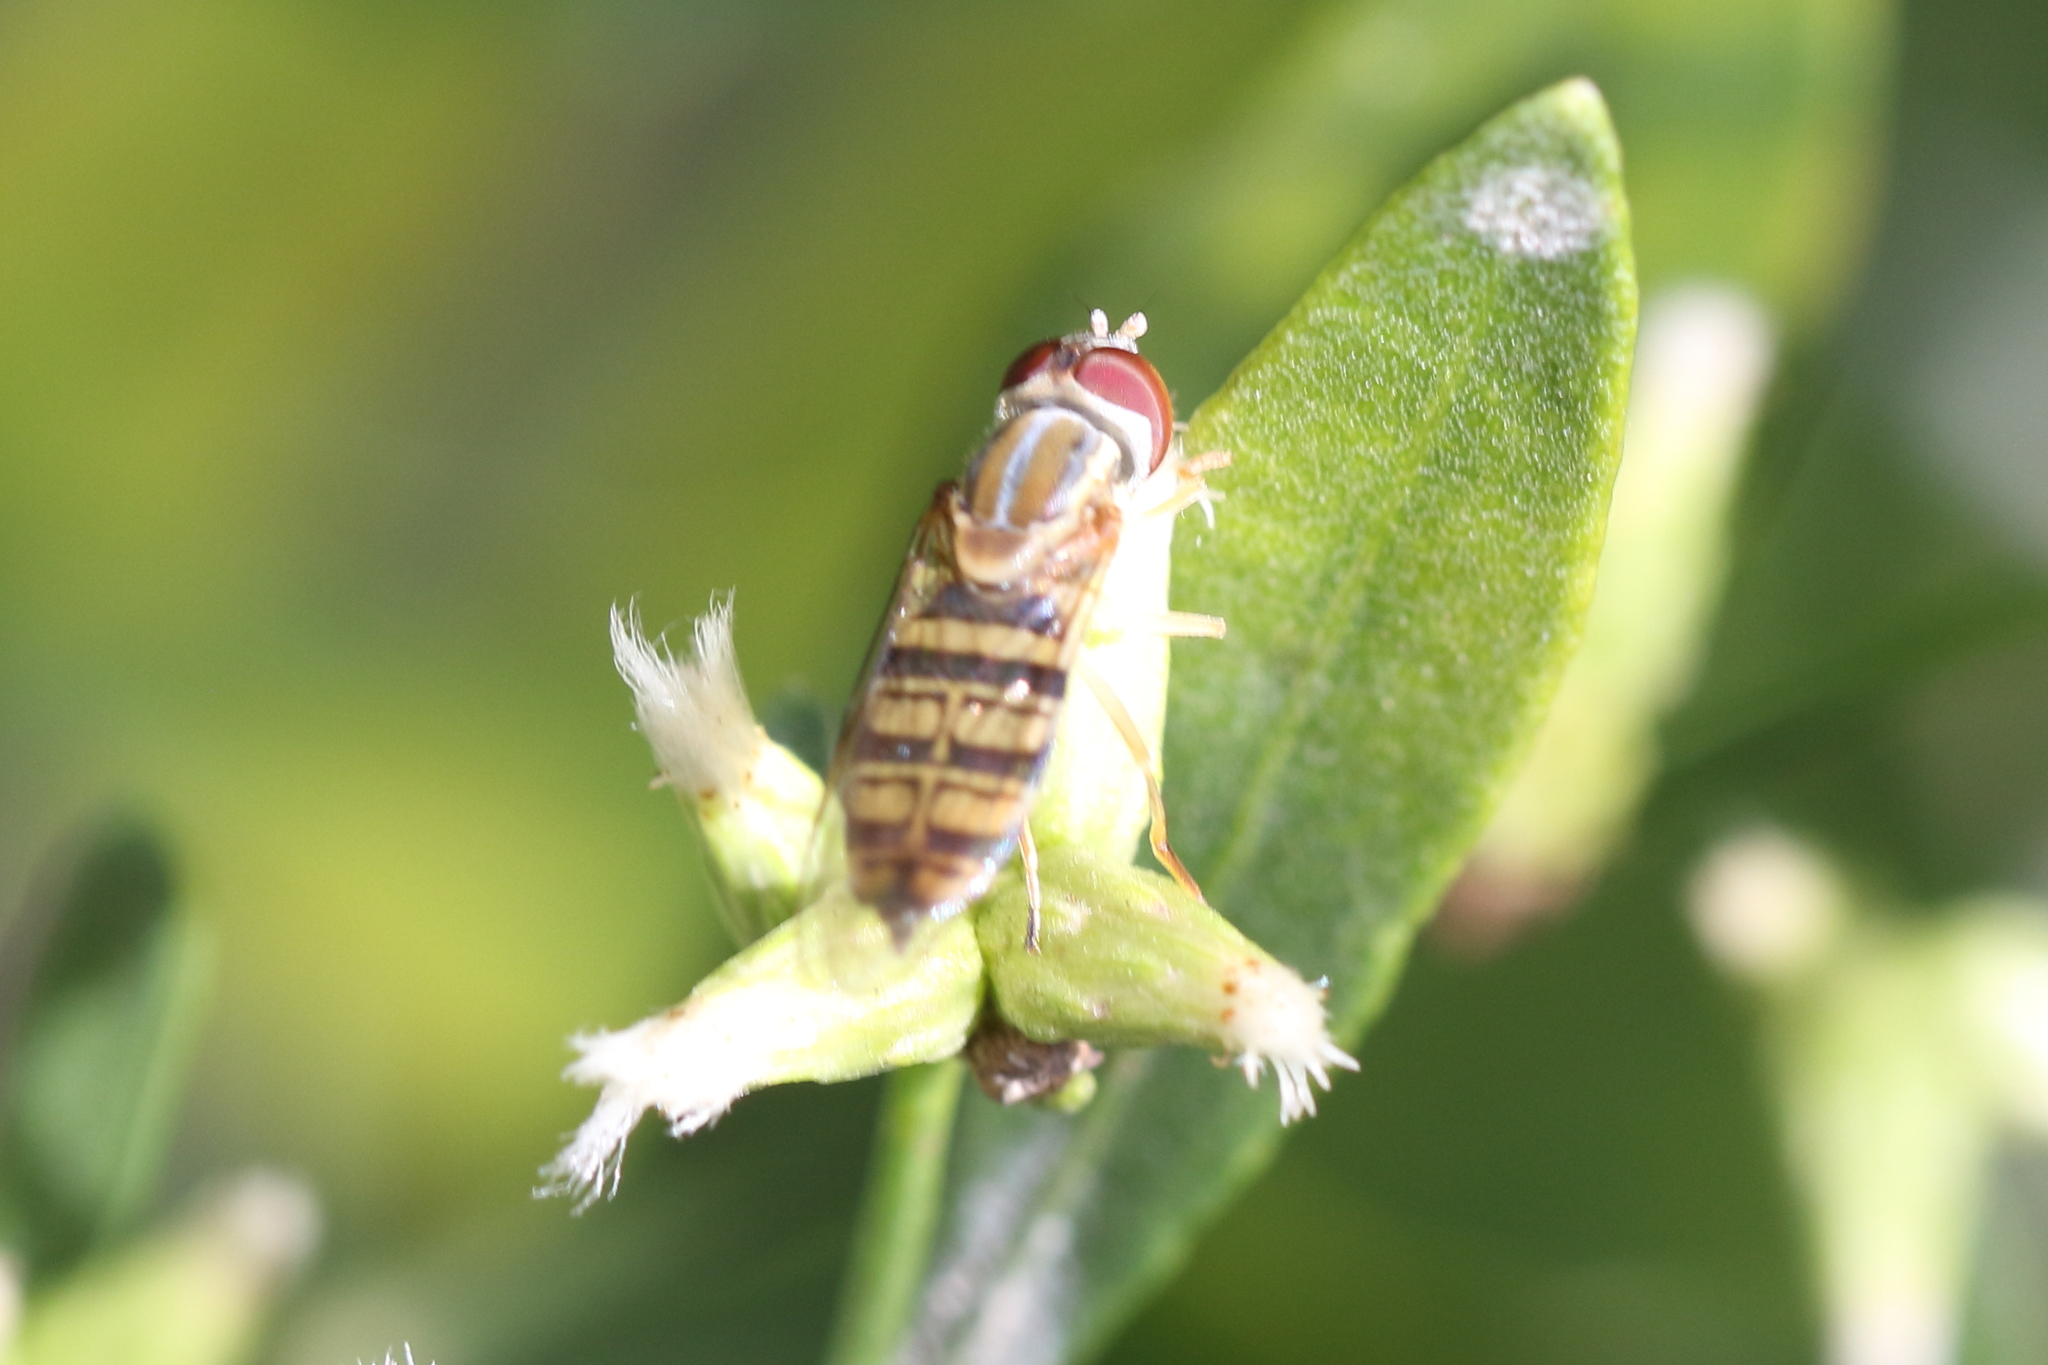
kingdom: Animalia
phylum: Arthropoda
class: Insecta
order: Diptera
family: Syrphidae
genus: Toxomerus
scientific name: Toxomerus politus
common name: Maize calligrapher
